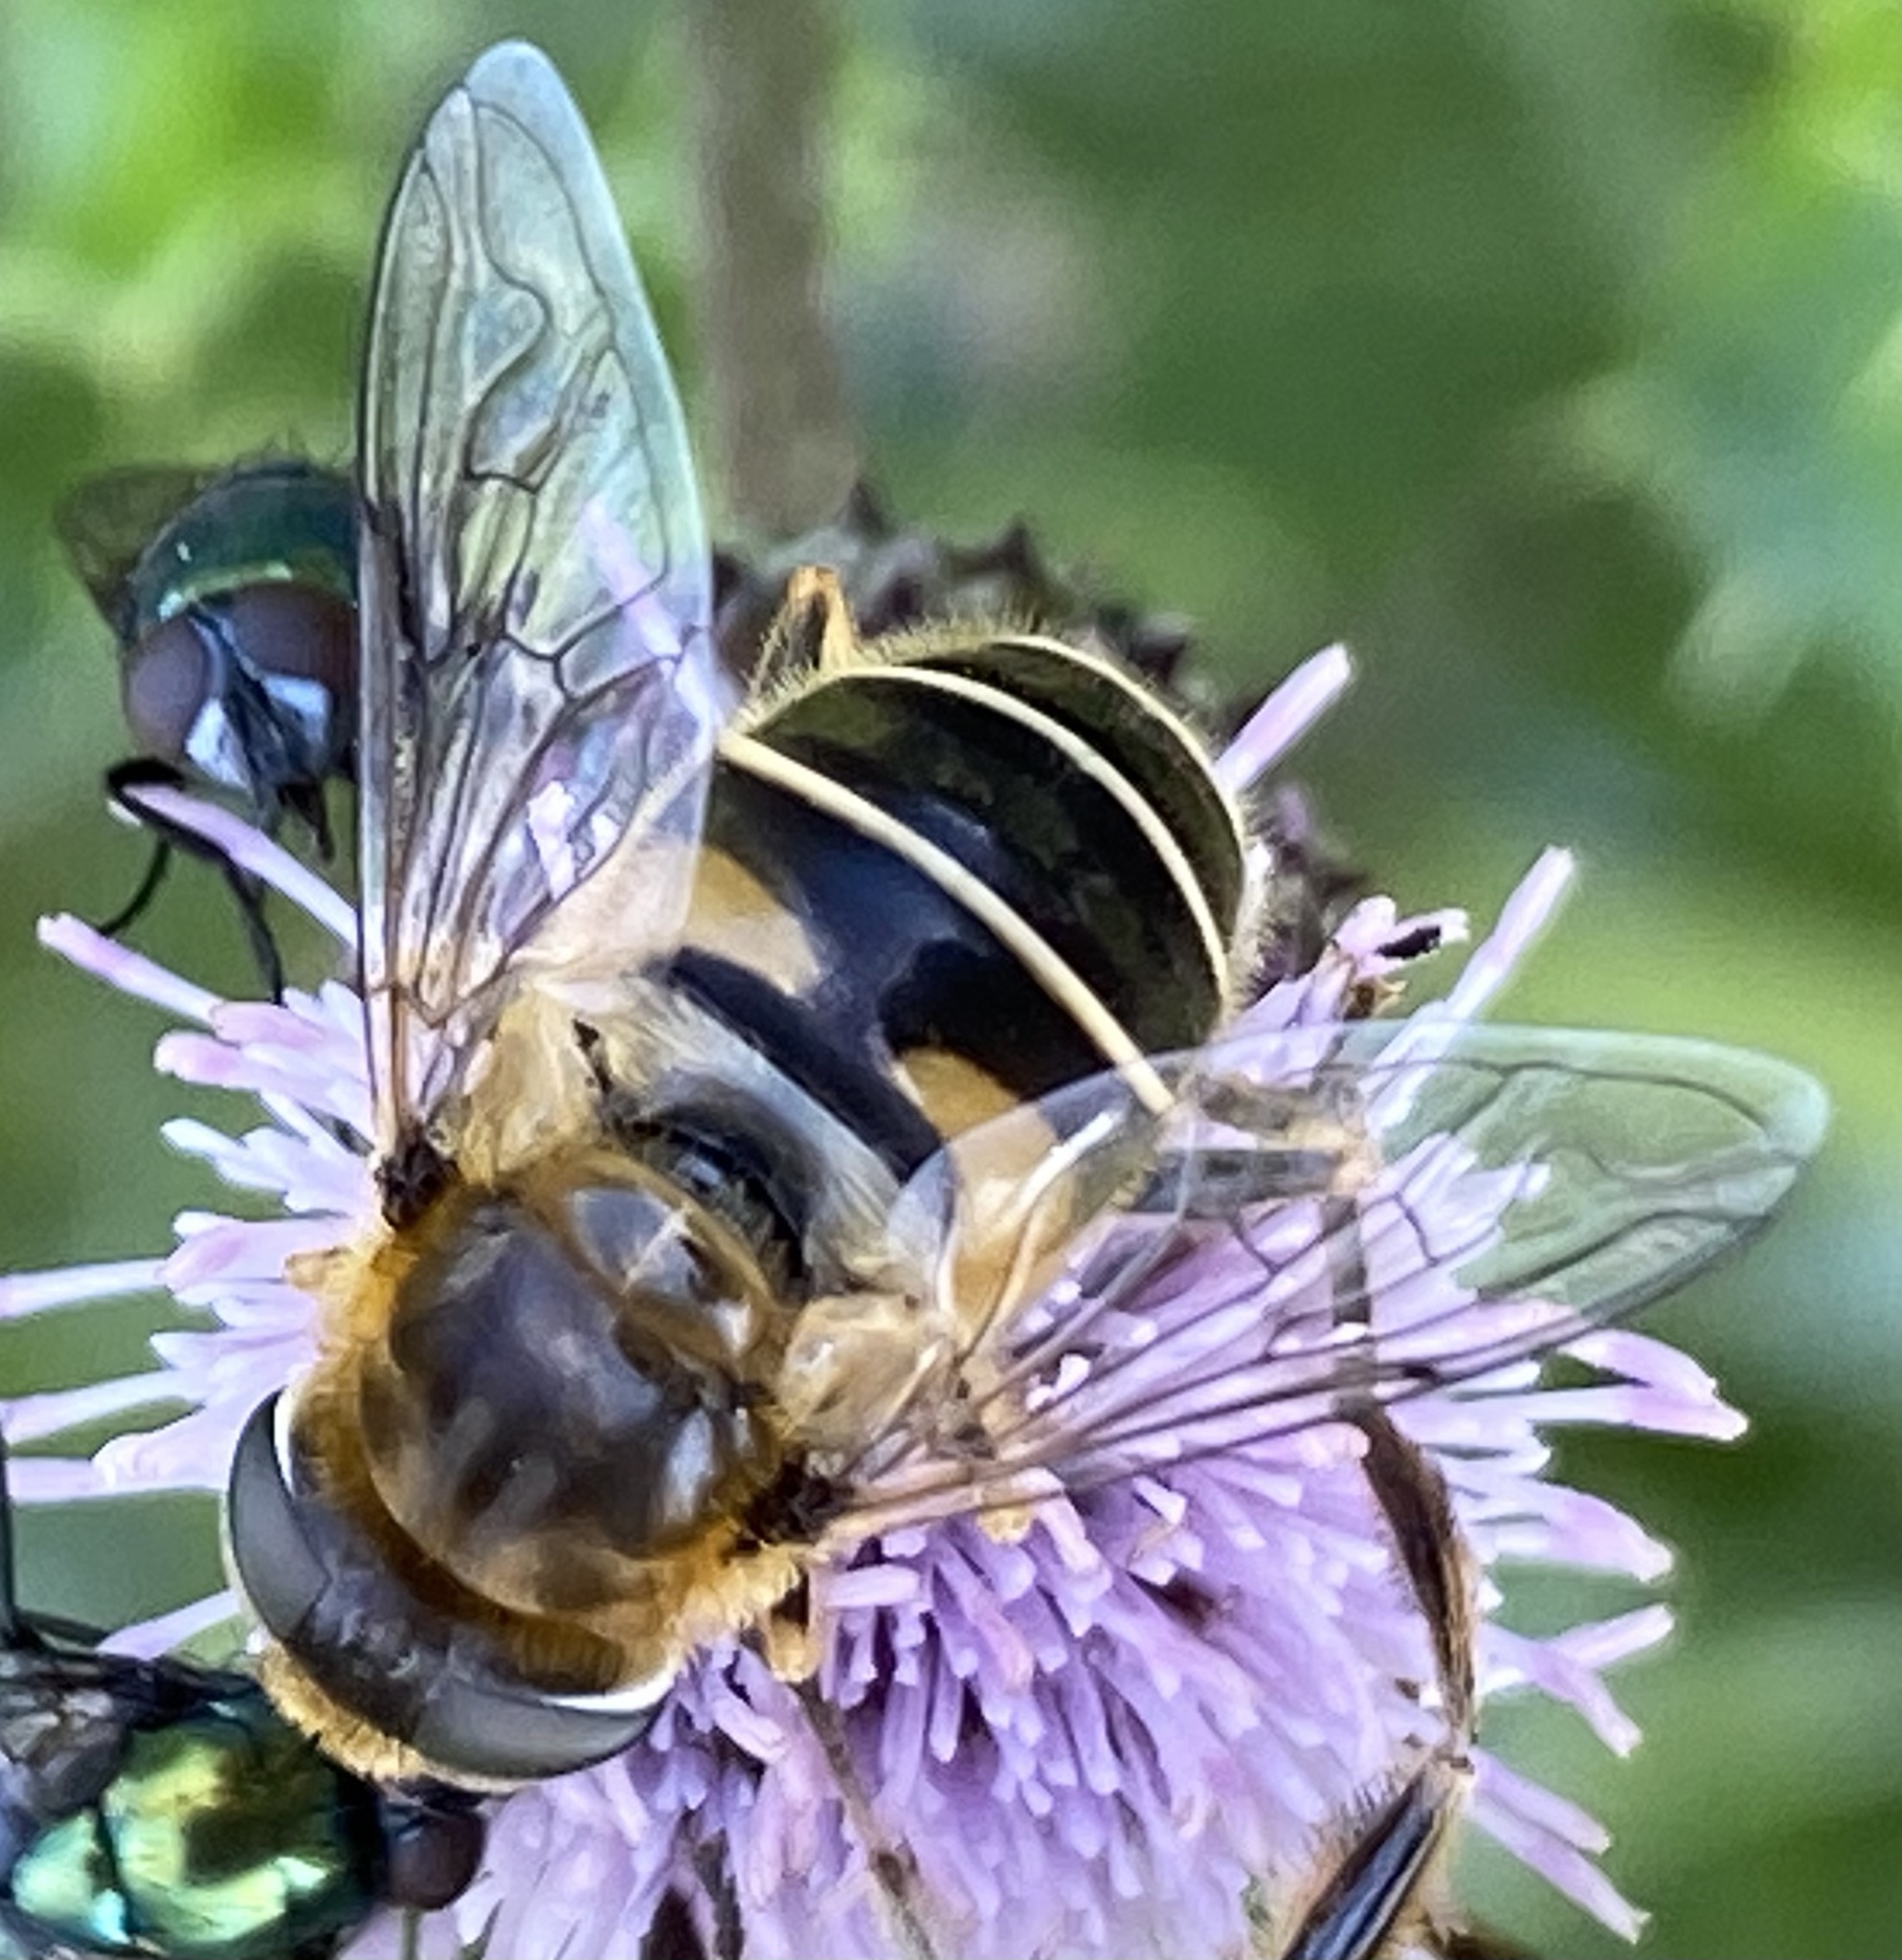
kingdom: Animalia
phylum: Arthropoda
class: Insecta
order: Diptera
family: Syrphidae
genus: Eristalis
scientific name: Eristalis nemorum
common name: Orange-spined drone fly
